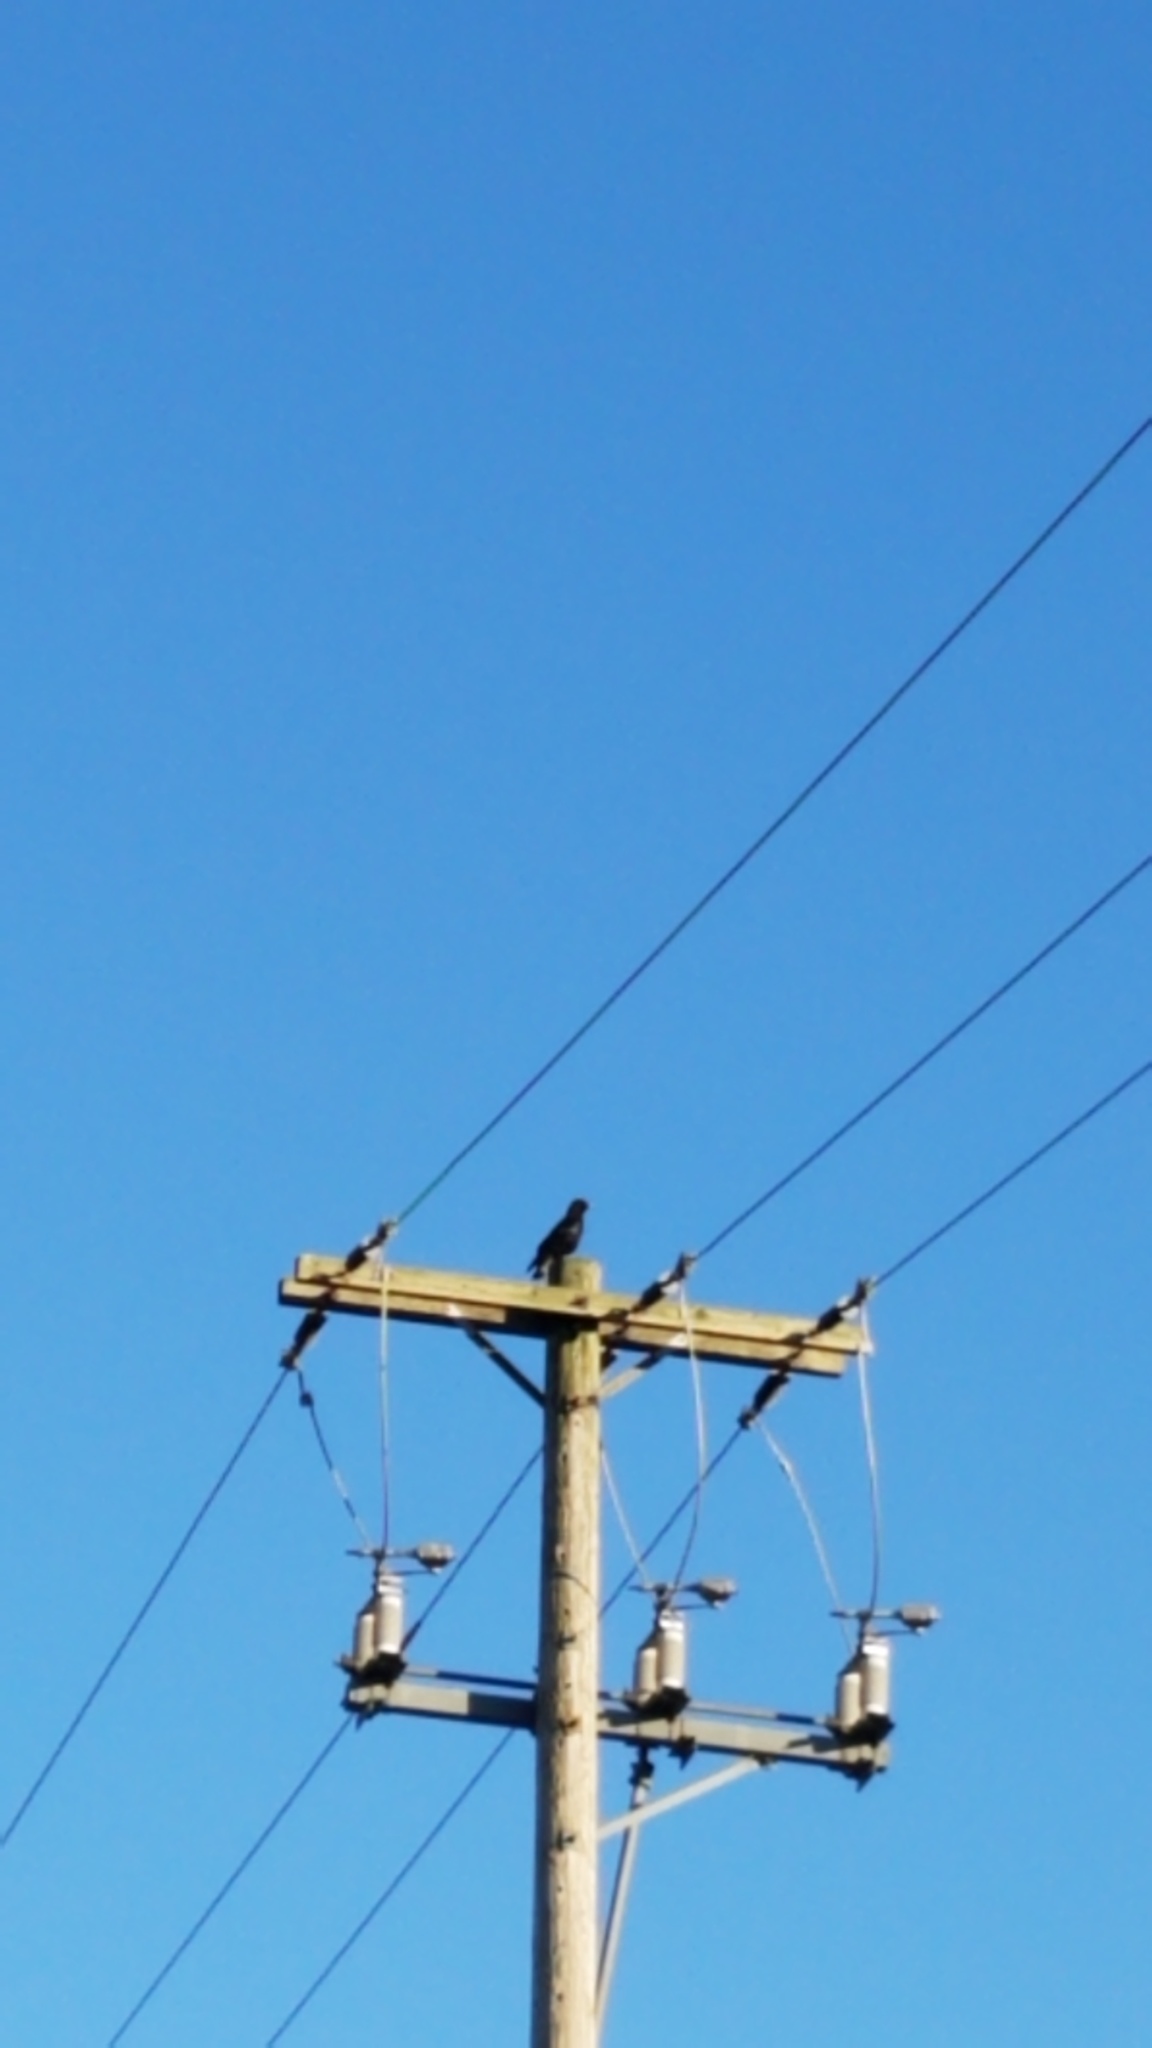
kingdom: Animalia
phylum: Chordata
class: Aves
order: Passeriformes
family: Corvidae
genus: Corvus
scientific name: Corvus brachyrhynchos
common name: American crow
